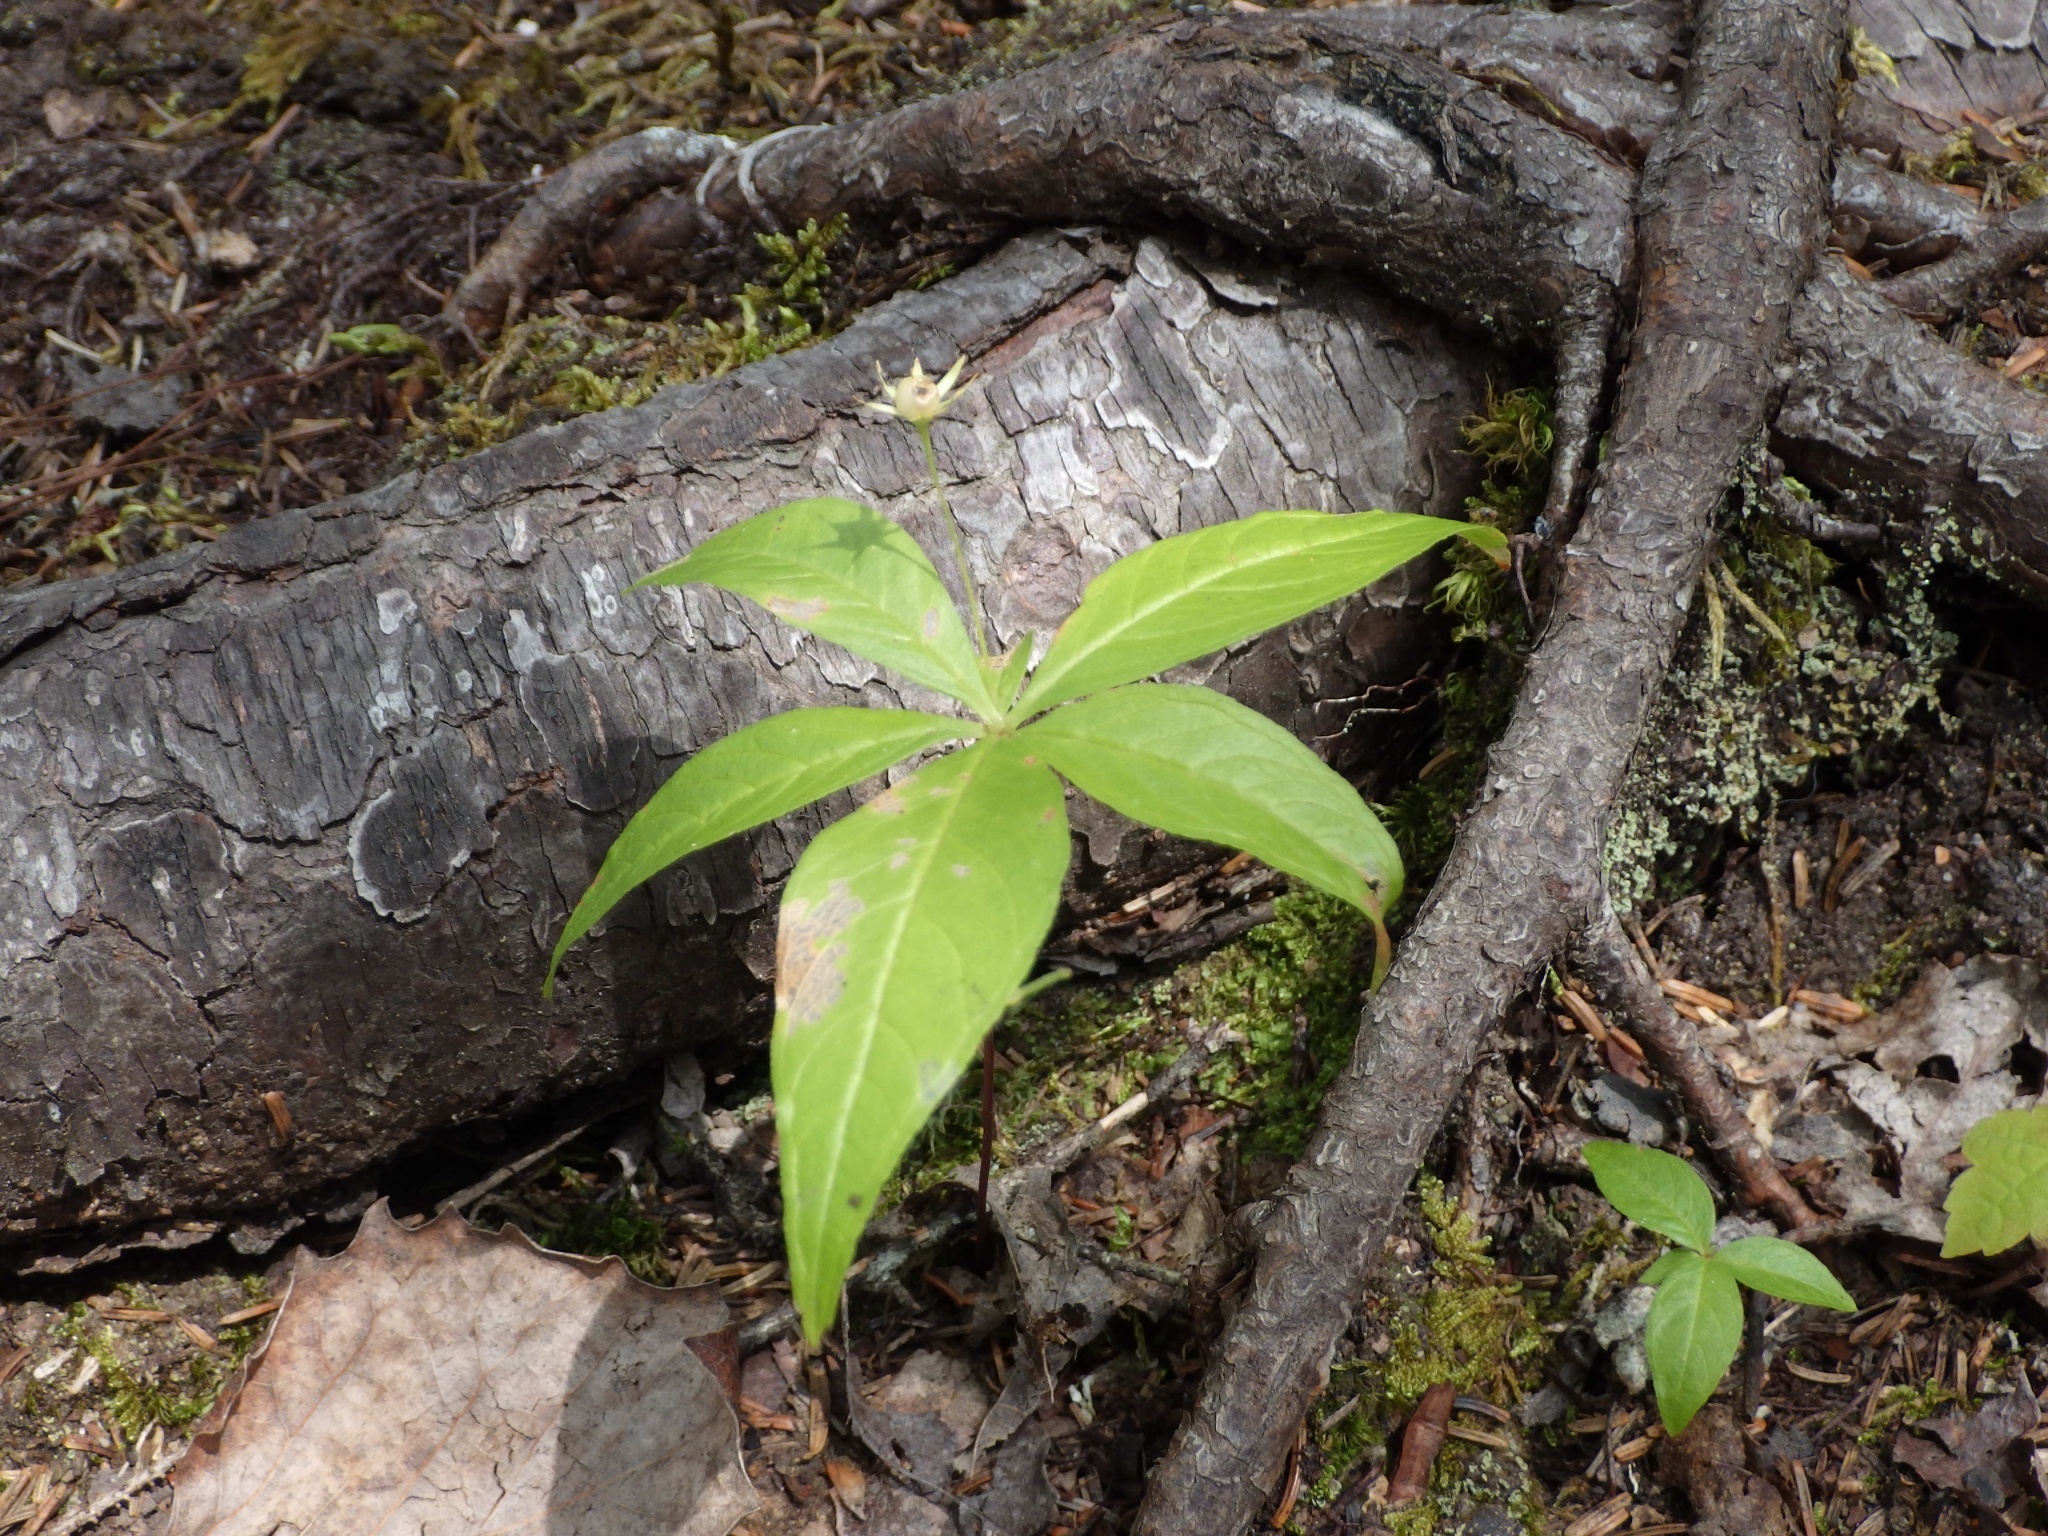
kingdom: Plantae
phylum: Tracheophyta
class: Magnoliopsida
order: Ericales
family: Primulaceae
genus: Lysimachia
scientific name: Lysimachia borealis
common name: American starflower
